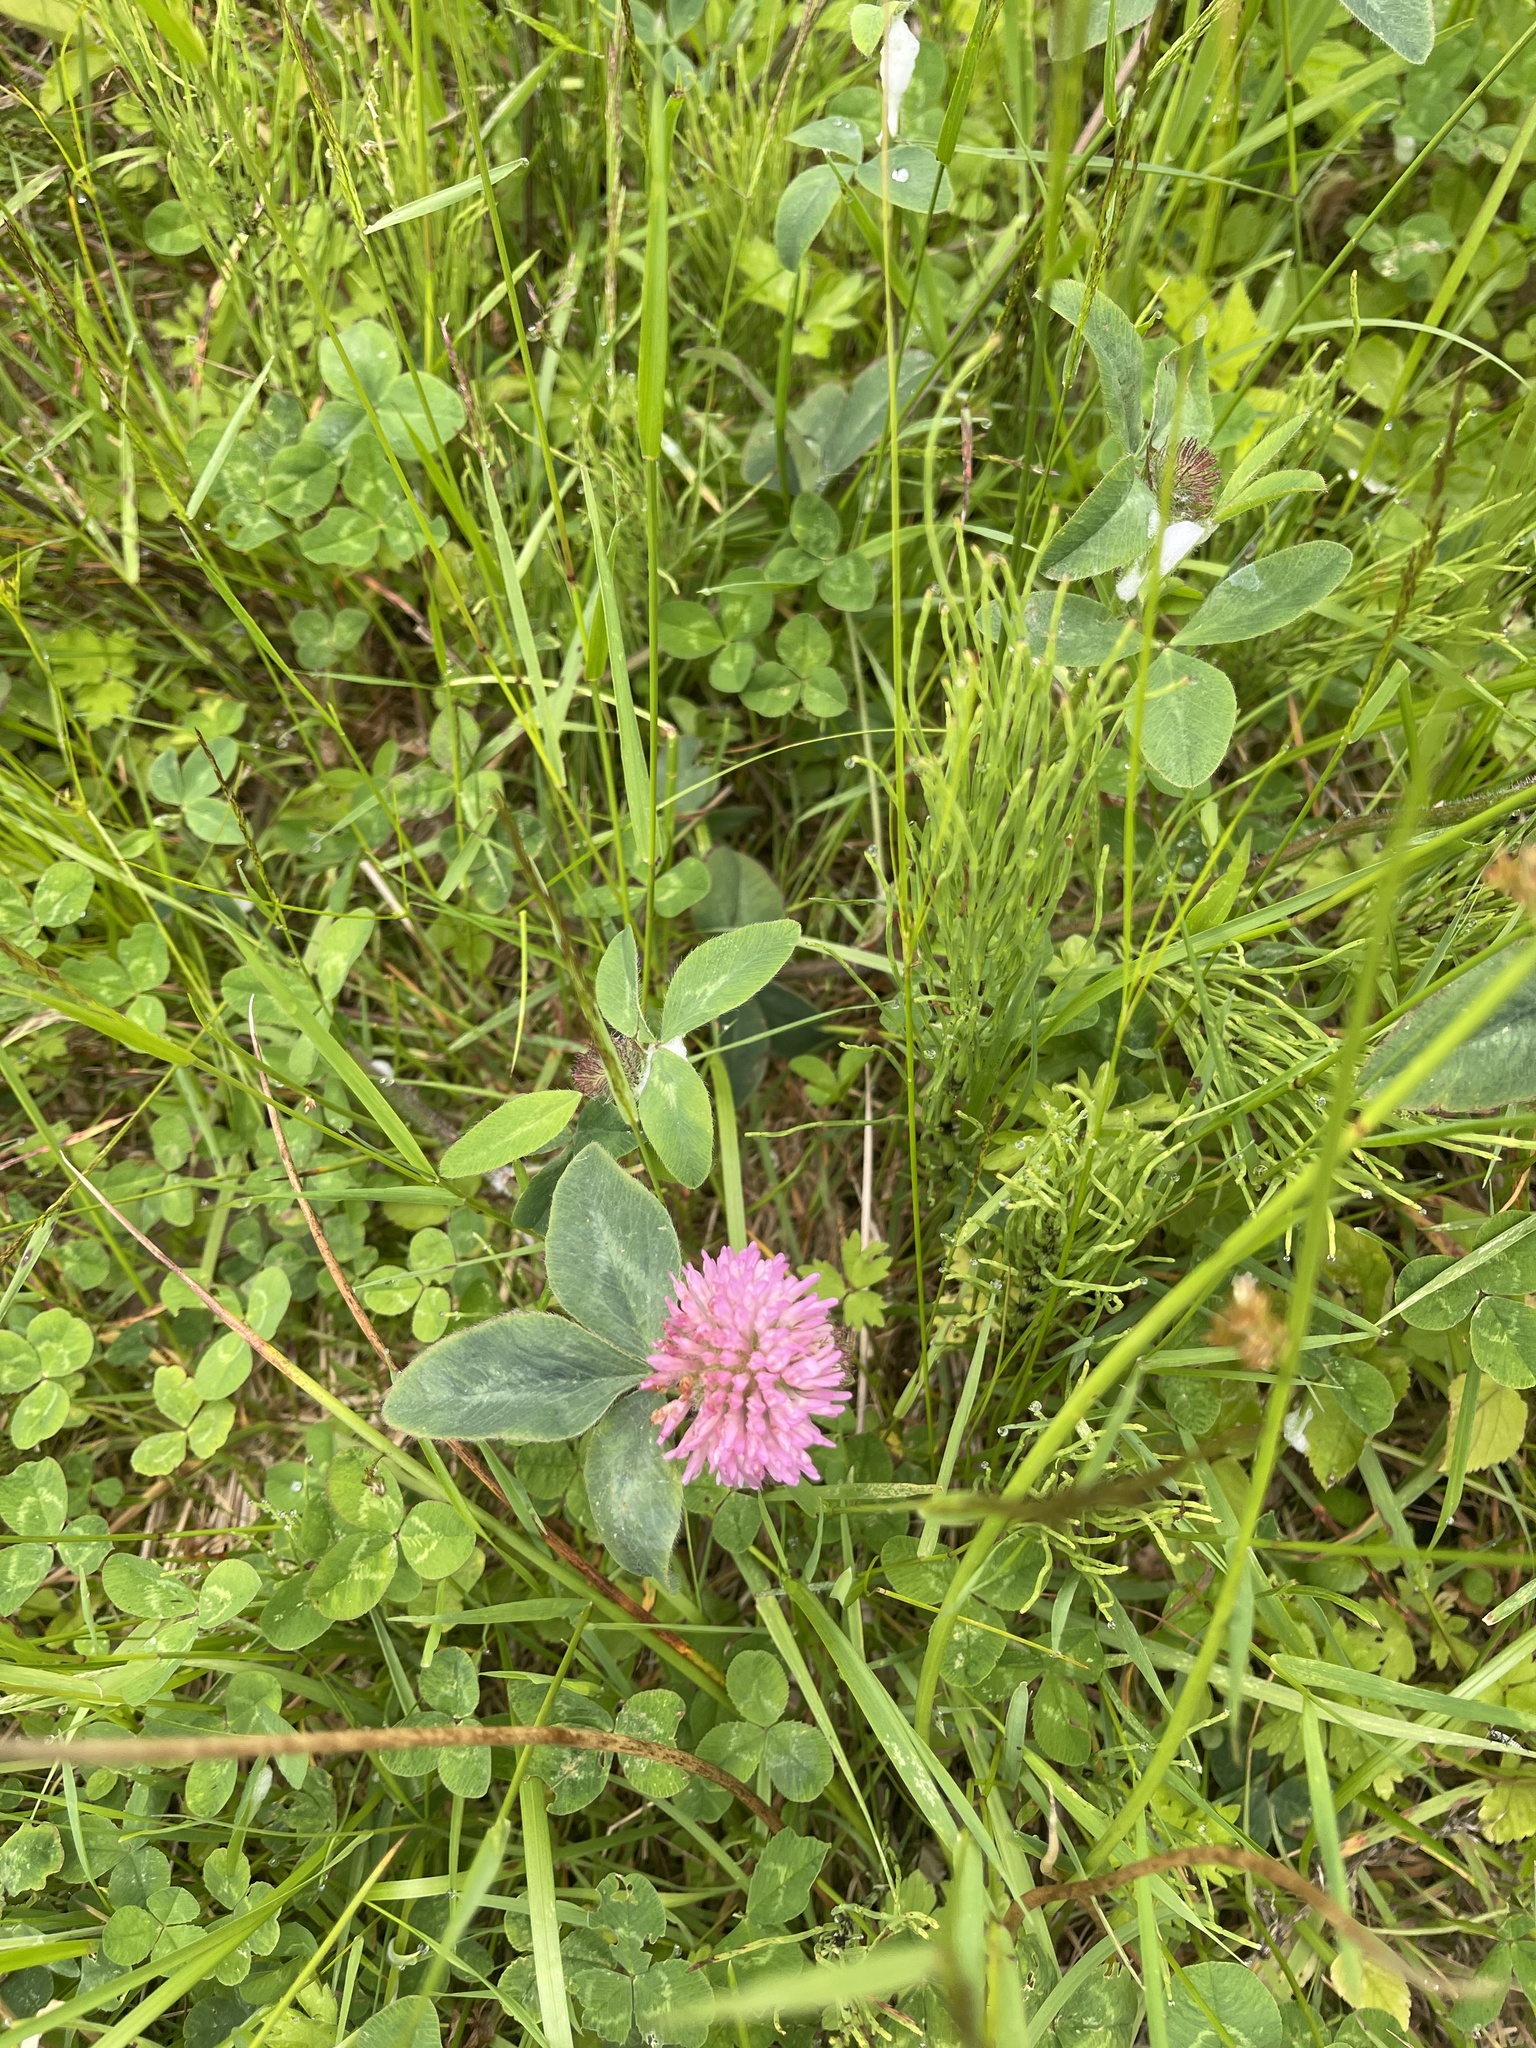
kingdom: Plantae
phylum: Tracheophyta
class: Magnoliopsida
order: Fabales
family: Fabaceae
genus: Trifolium
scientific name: Trifolium pratense
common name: Red clover
